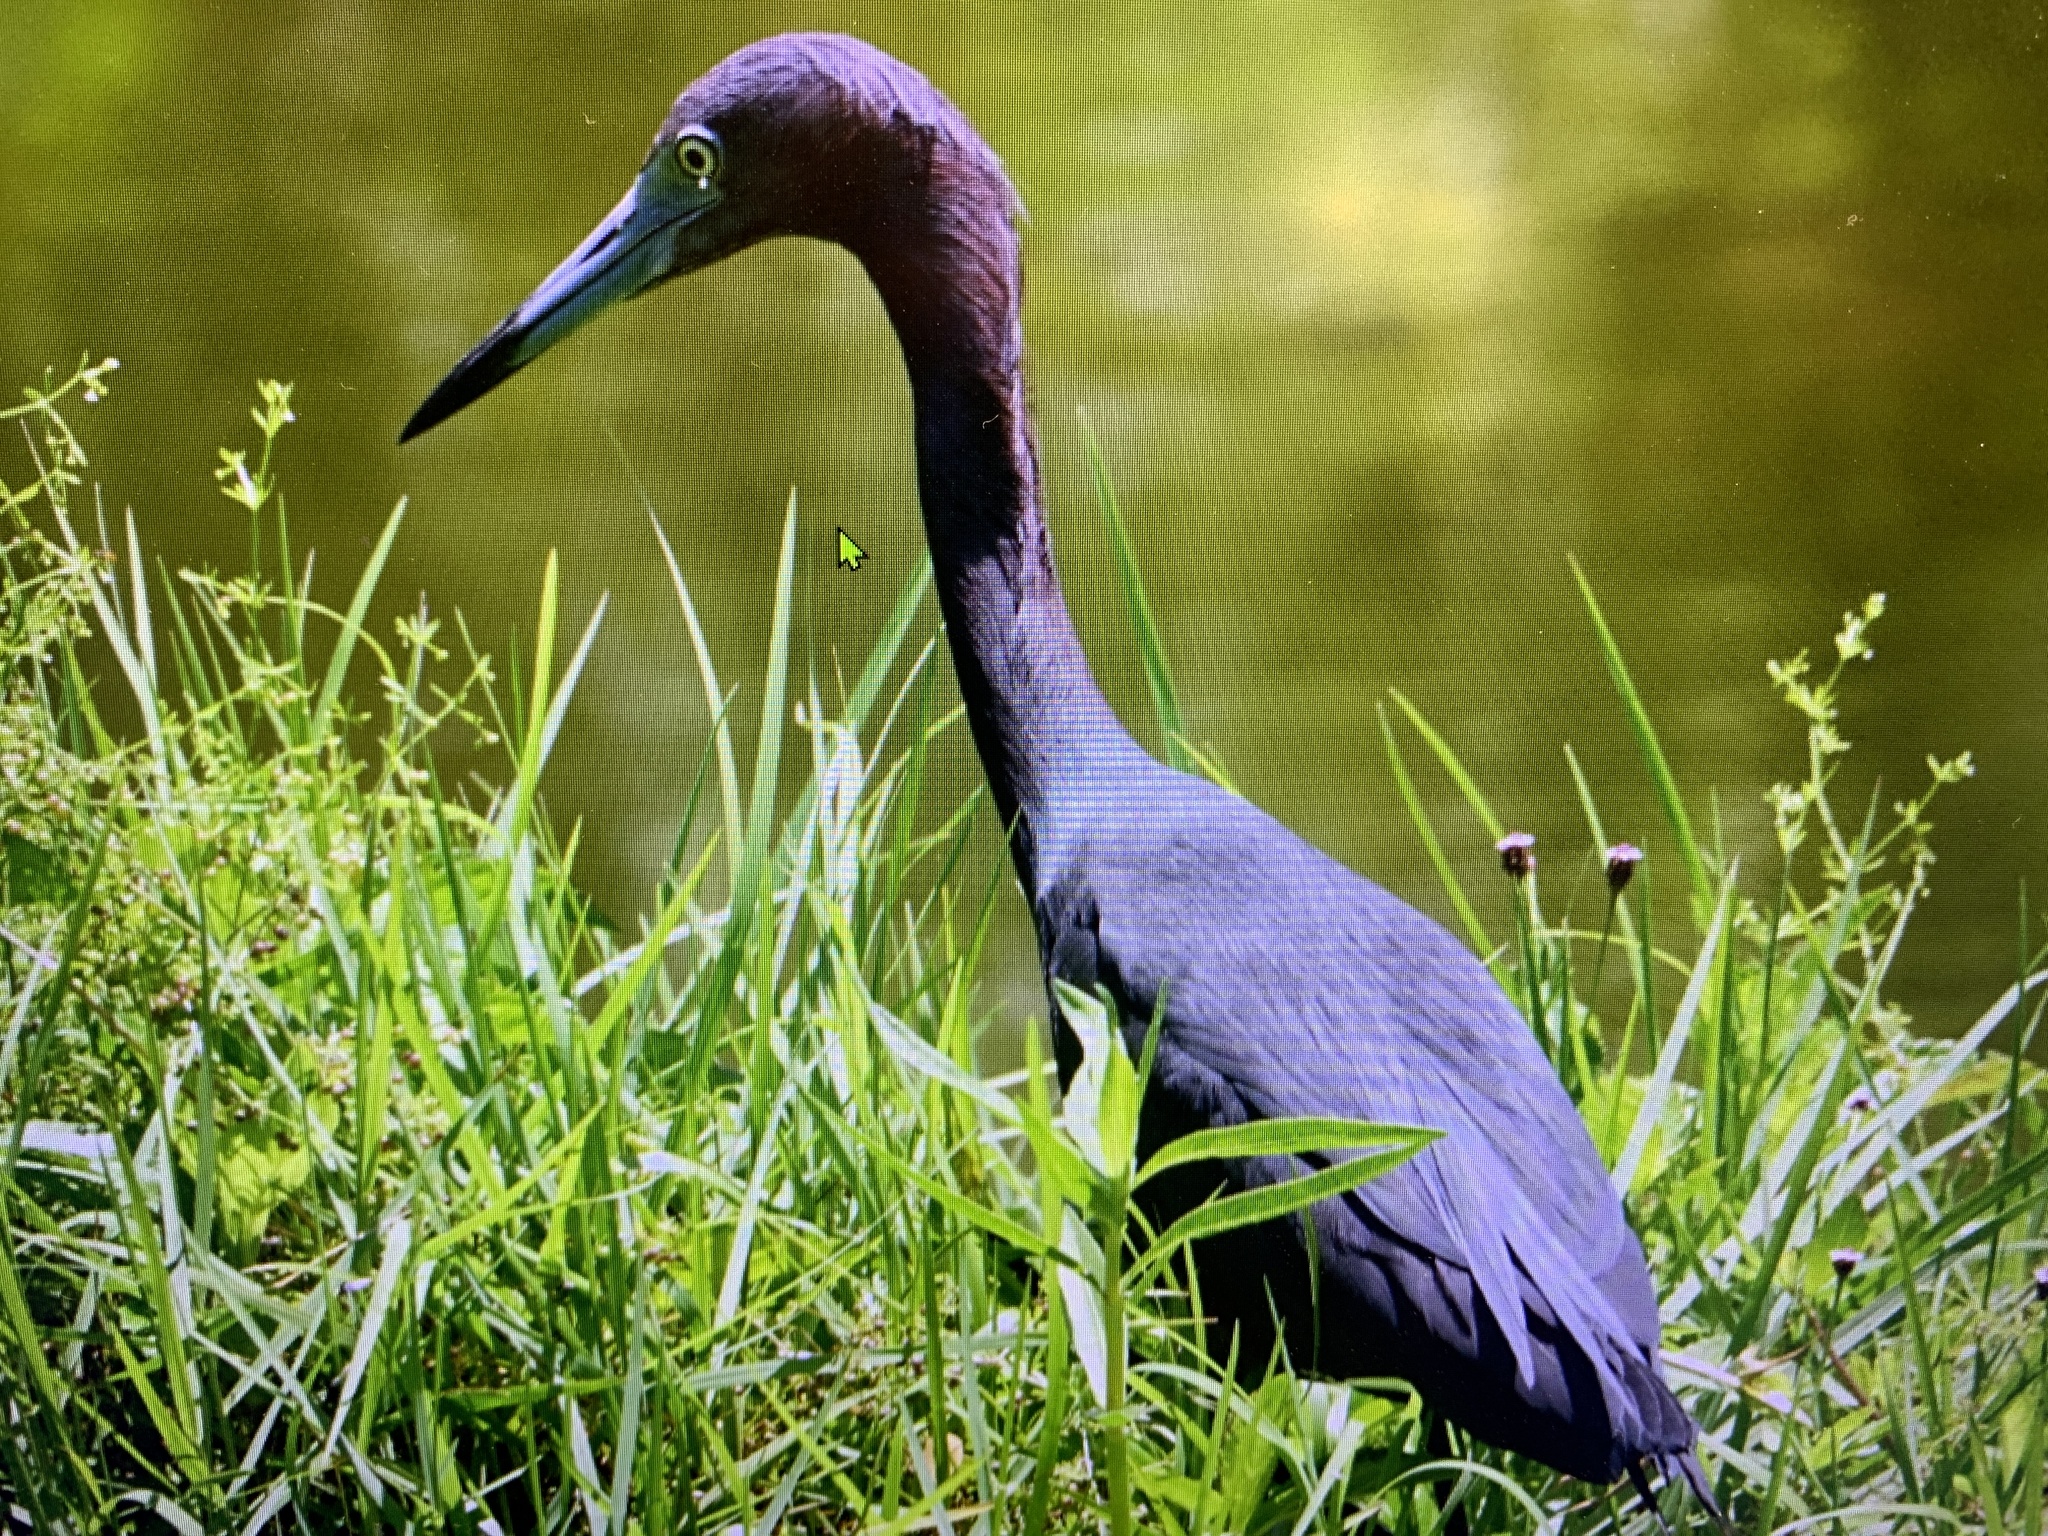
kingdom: Animalia
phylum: Chordata
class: Aves
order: Pelecaniformes
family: Ardeidae
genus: Egretta
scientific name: Egretta caerulea
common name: Little blue heron
